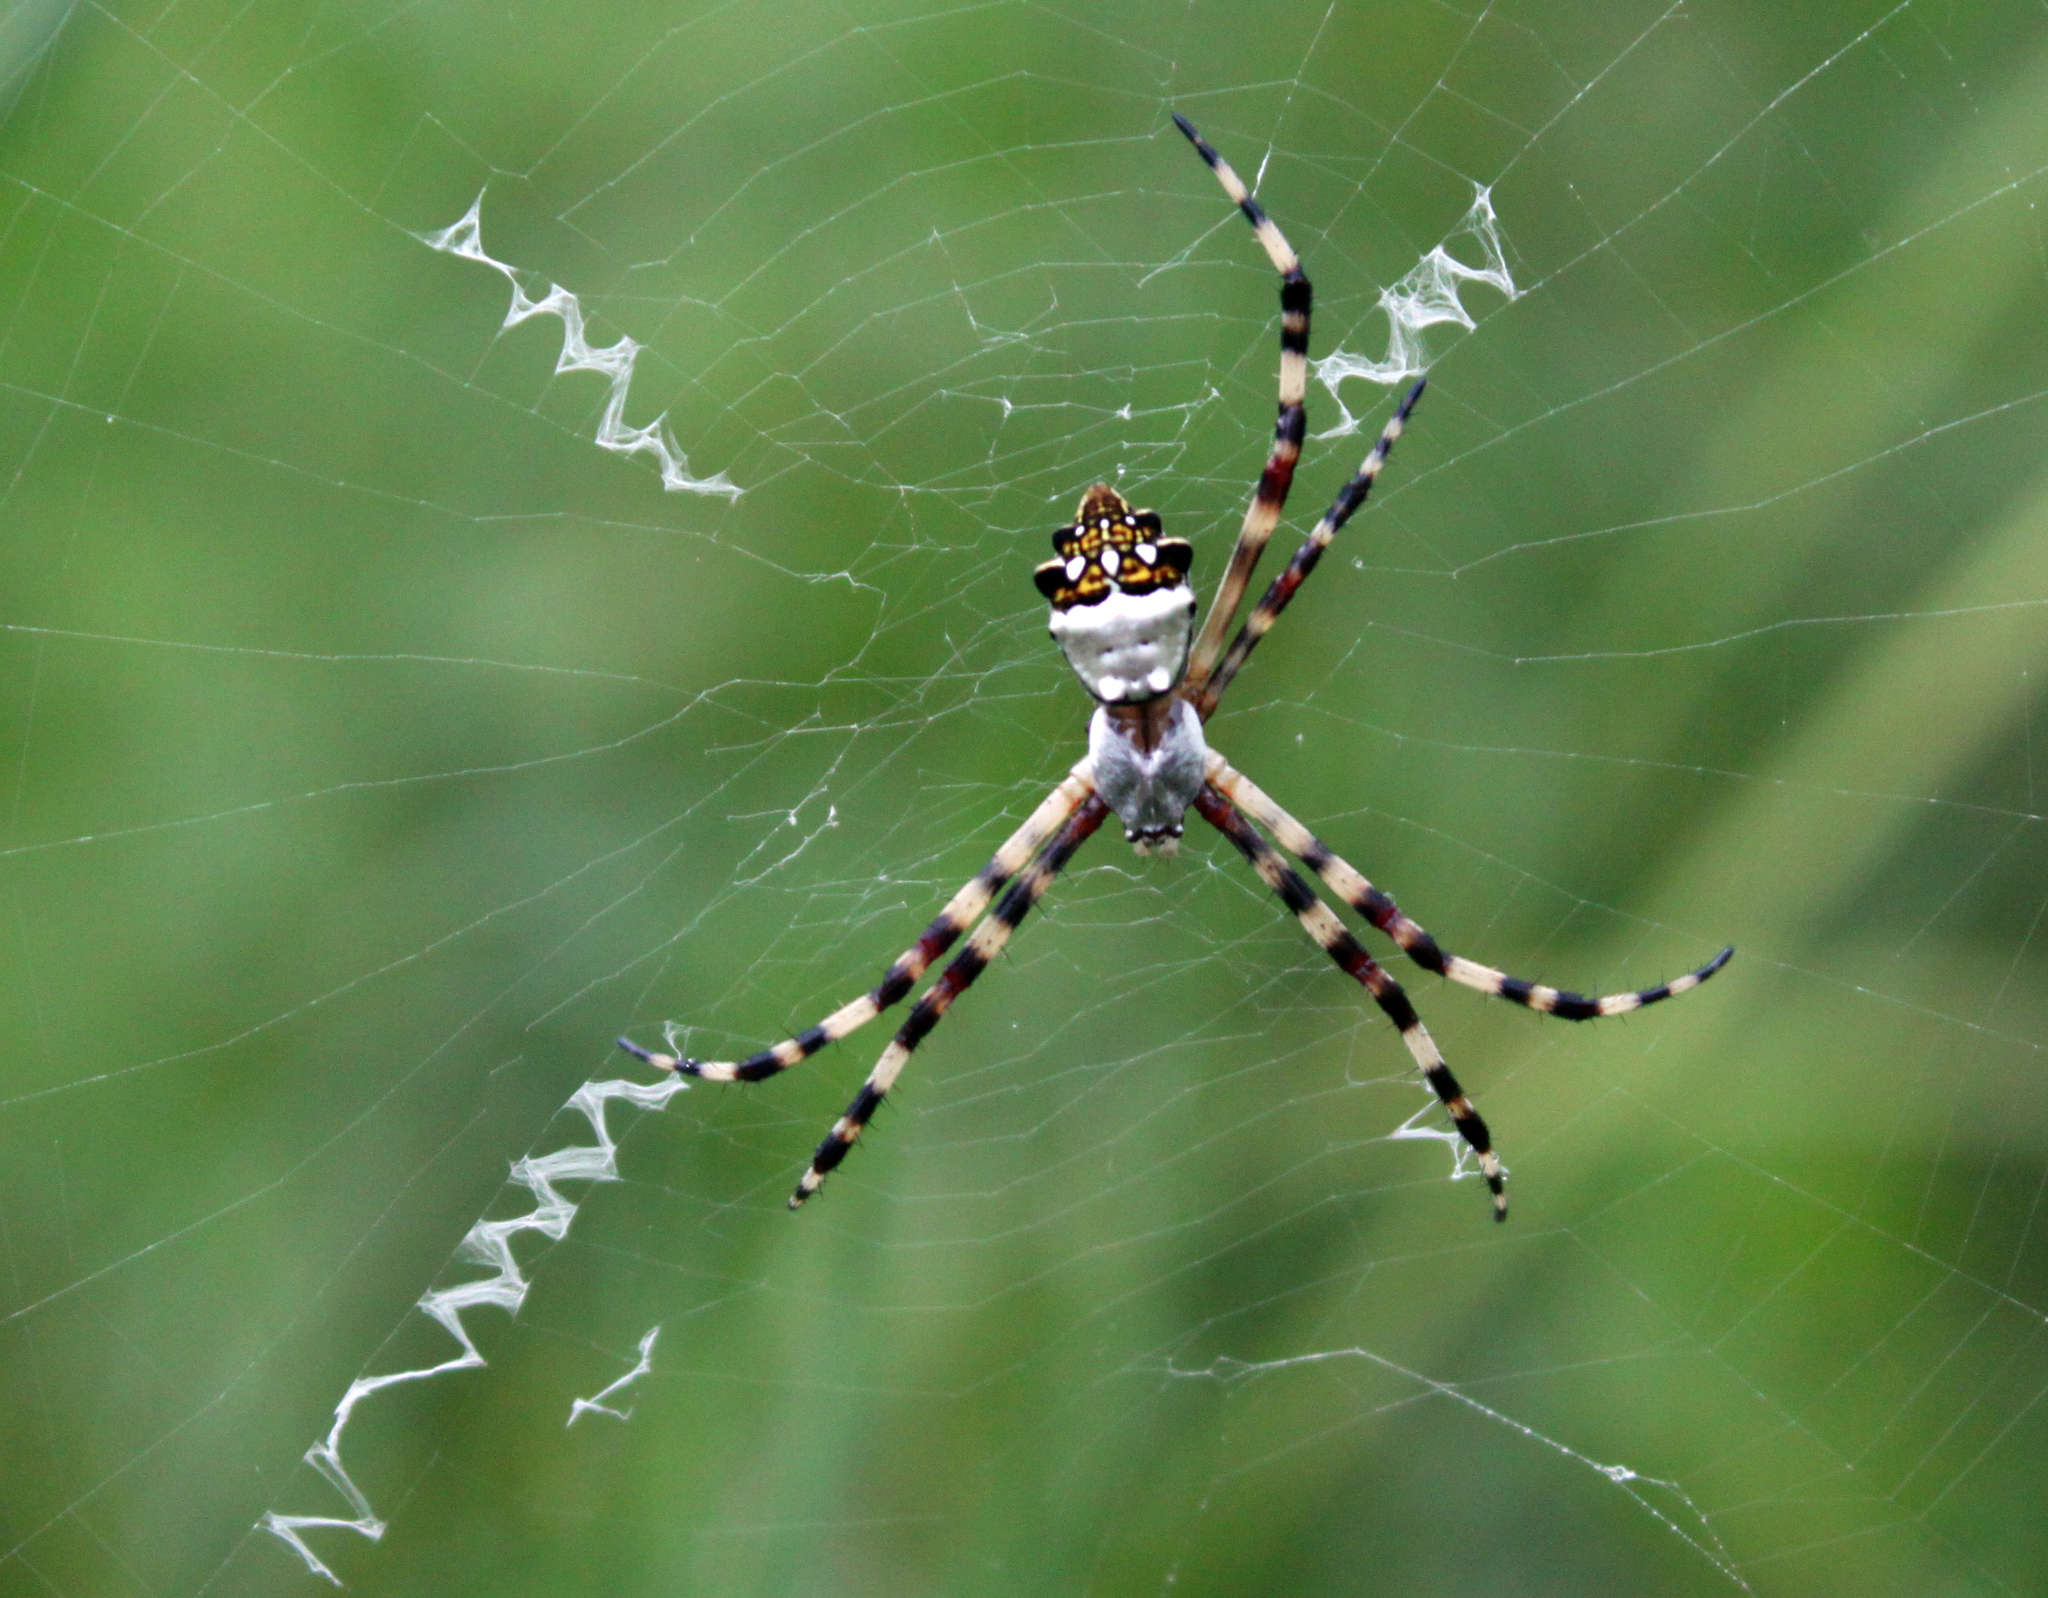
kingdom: Animalia
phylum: Arthropoda
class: Arachnida
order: Araneae
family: Araneidae
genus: Argiope
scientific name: Argiope argentata
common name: Orb weavers
